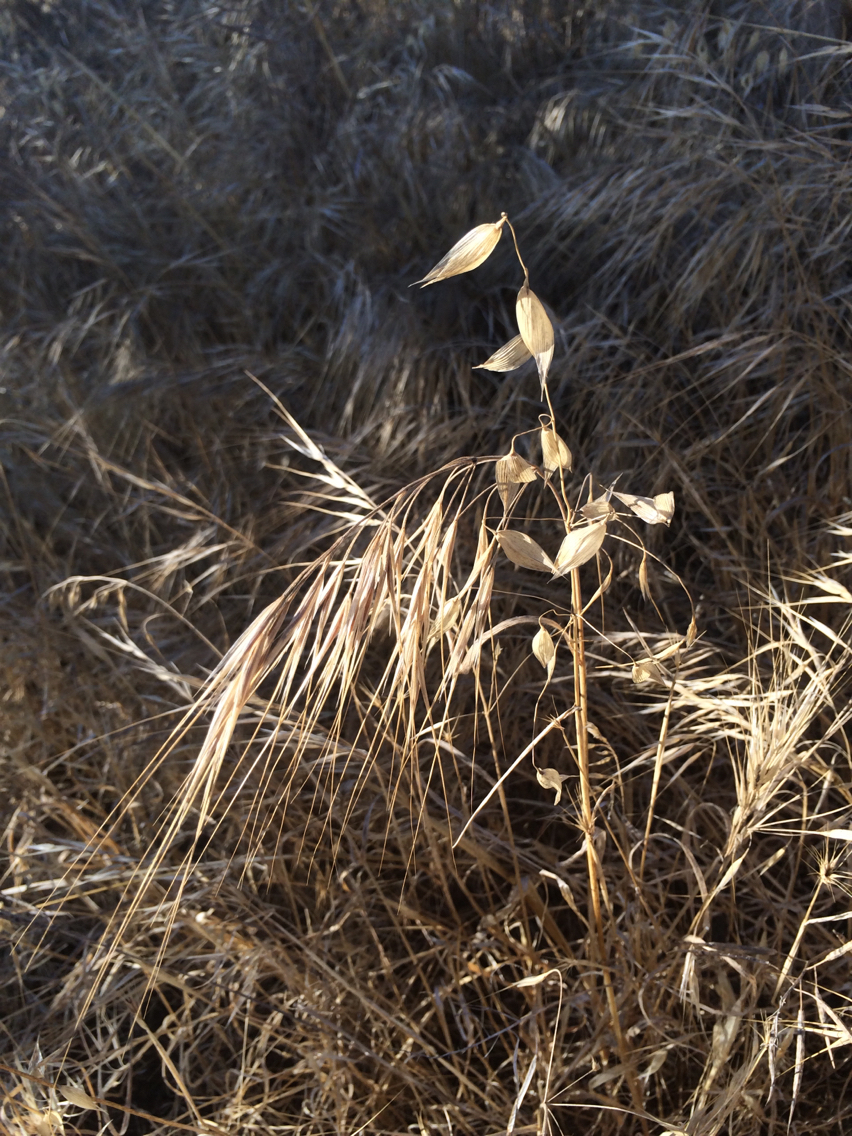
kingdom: Plantae
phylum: Tracheophyta
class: Liliopsida
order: Poales
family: Poaceae
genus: Bromus
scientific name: Bromus diandrus
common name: Ripgut brome
